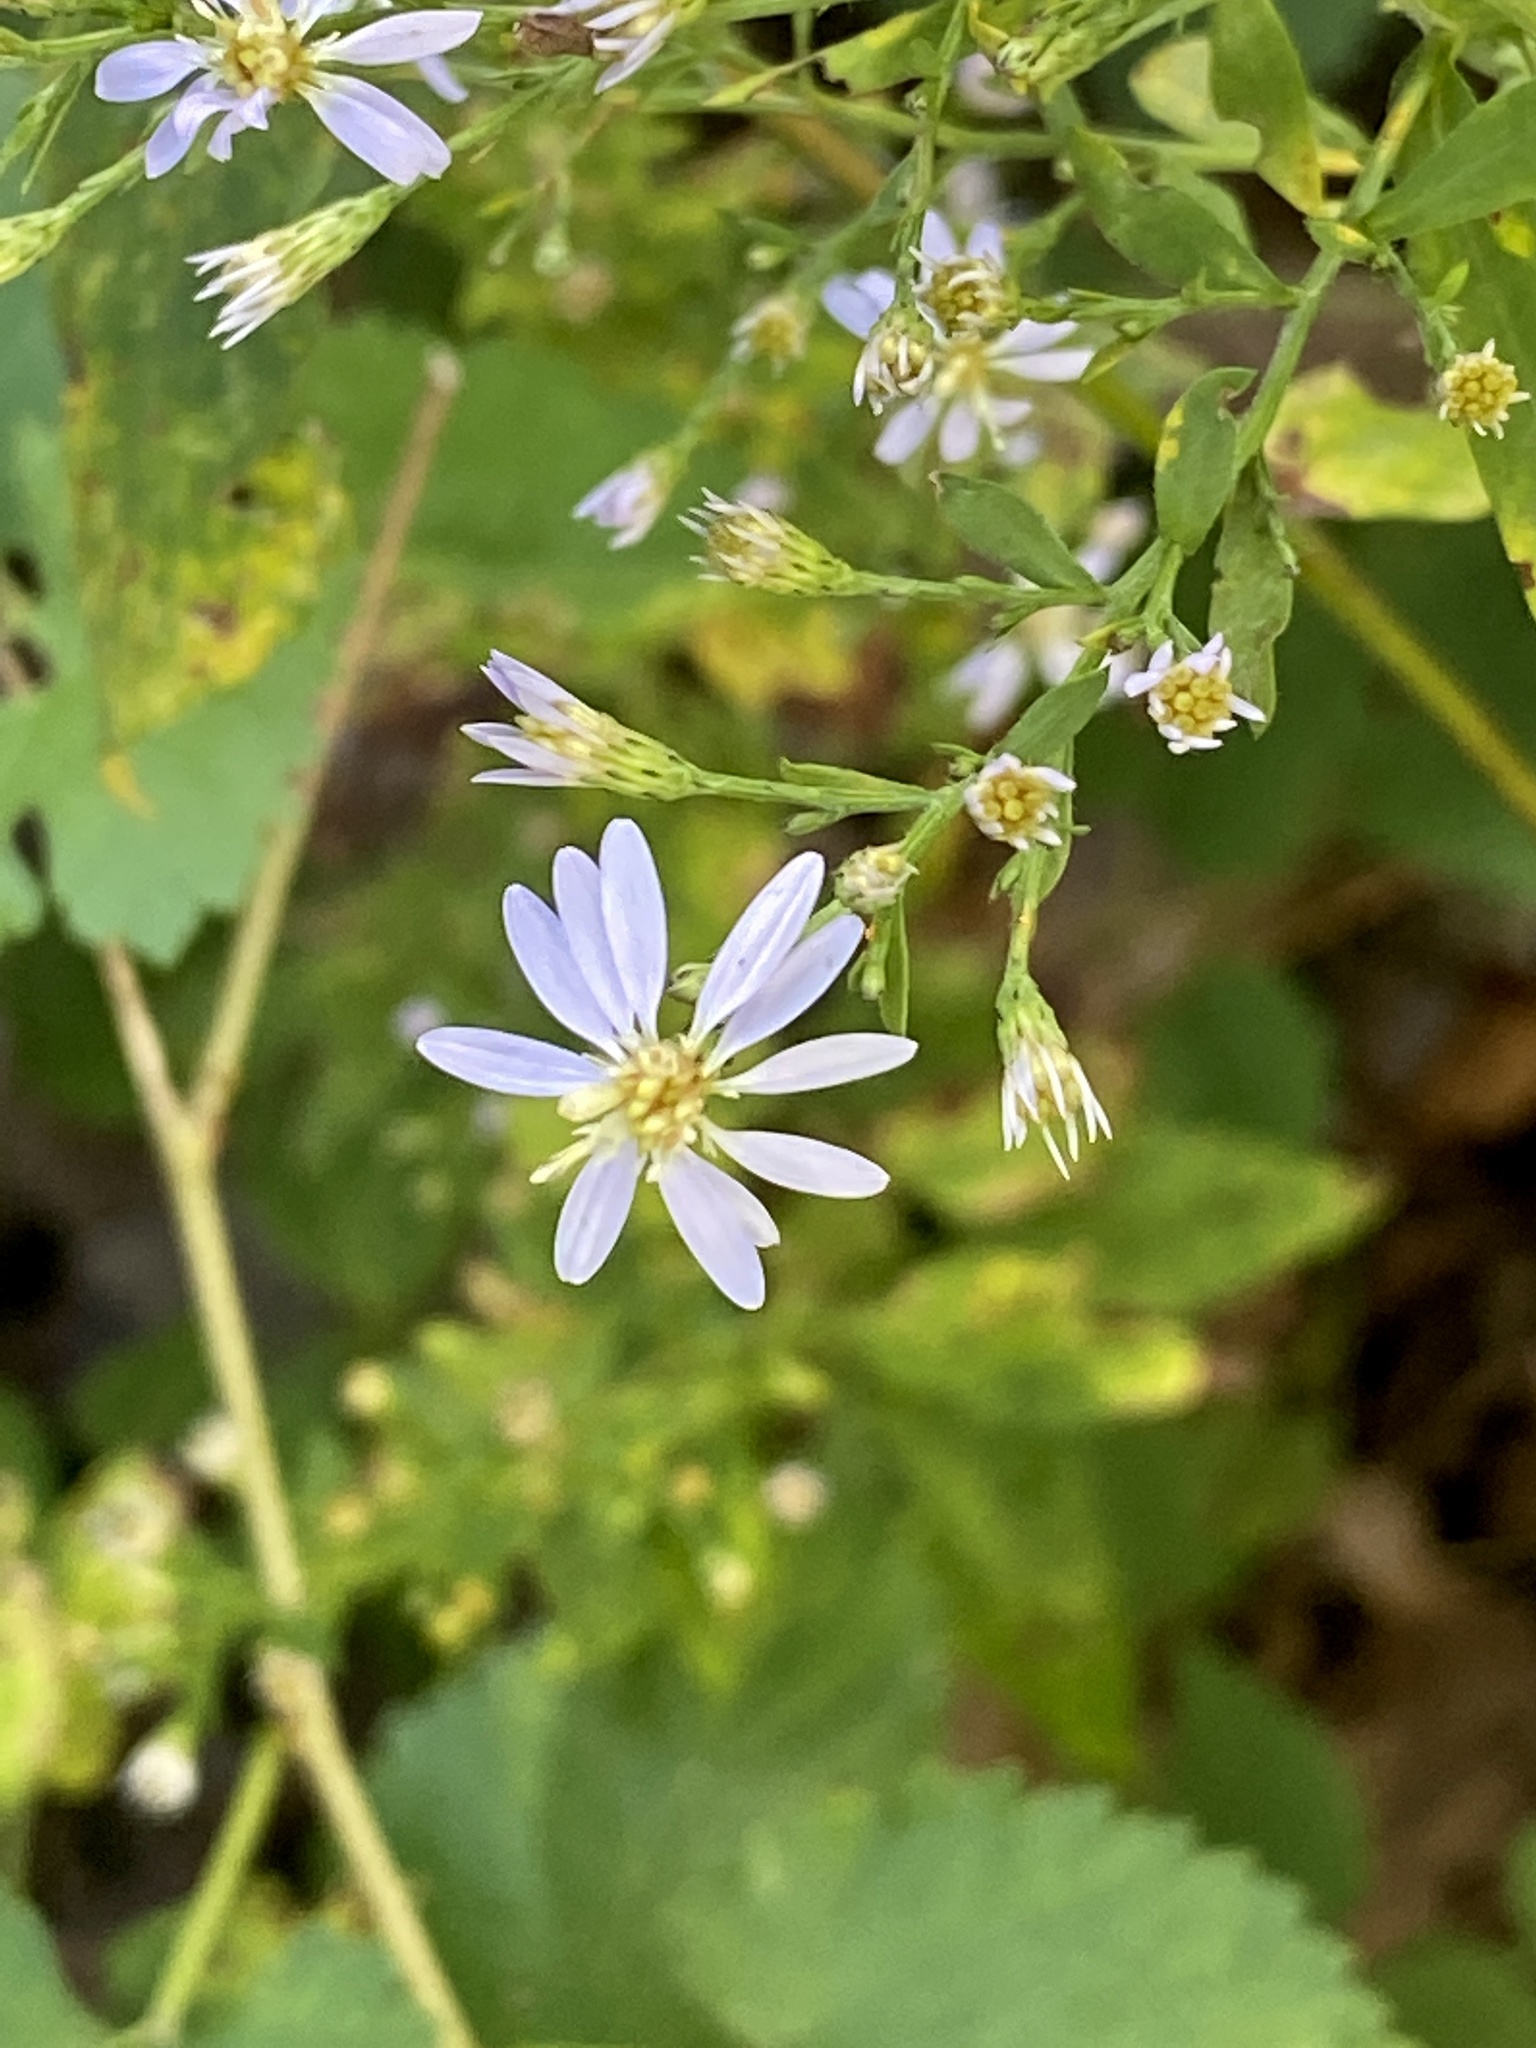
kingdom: Plantae
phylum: Tracheophyta
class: Magnoliopsida
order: Asterales
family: Asteraceae
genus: Symphyotrichum
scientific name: Symphyotrichum cordifolium
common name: Beeweed
